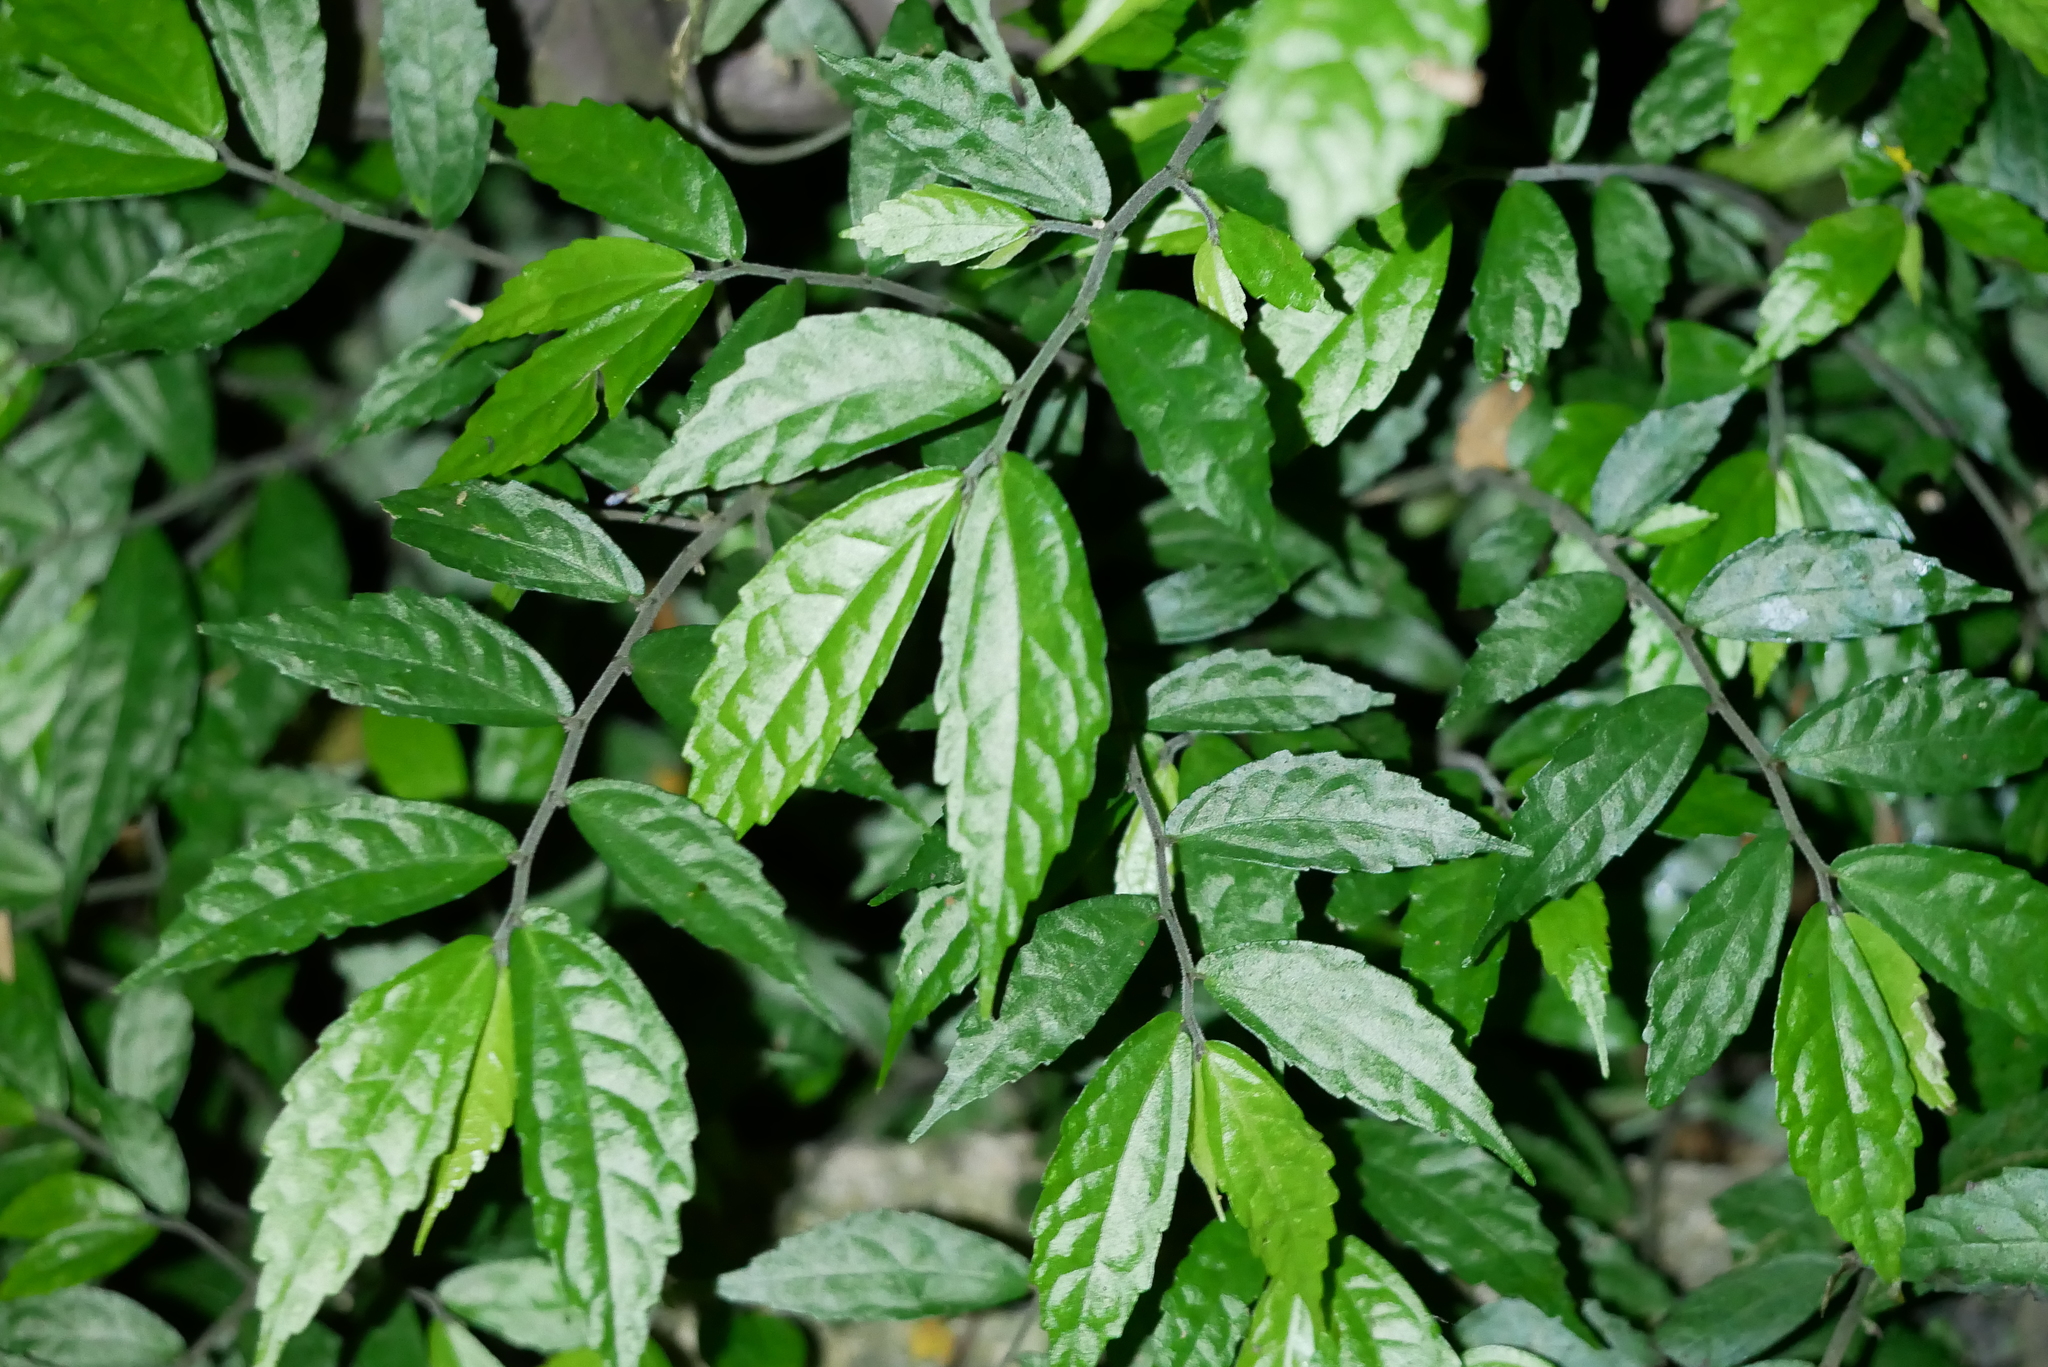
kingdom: Plantae
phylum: Tracheophyta
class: Magnoliopsida
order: Rosales
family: Urticaceae
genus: Elatostema
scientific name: Elatostema scabrum
